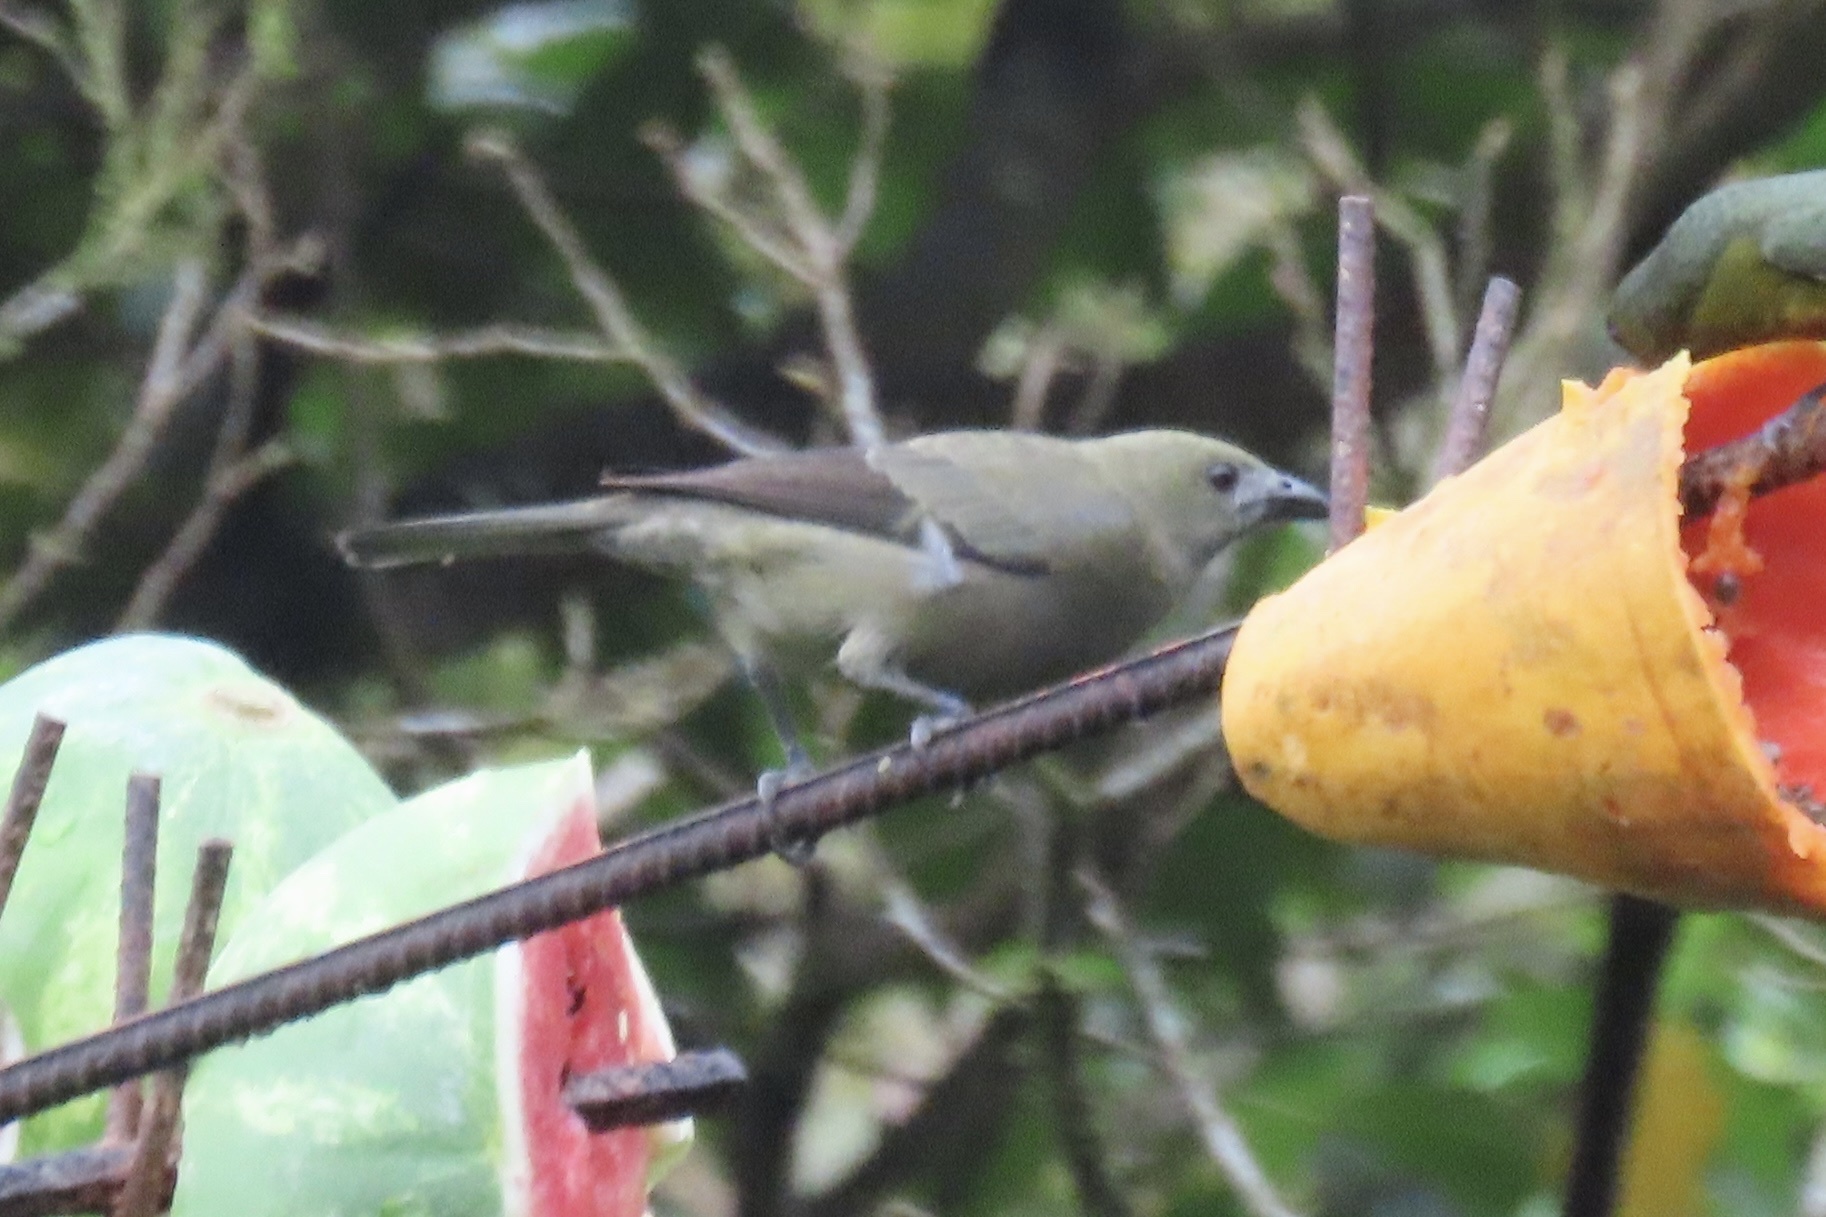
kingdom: Animalia
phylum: Chordata
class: Aves
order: Passeriformes
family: Thraupidae
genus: Thraupis
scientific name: Thraupis palmarum
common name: Palm tanager
